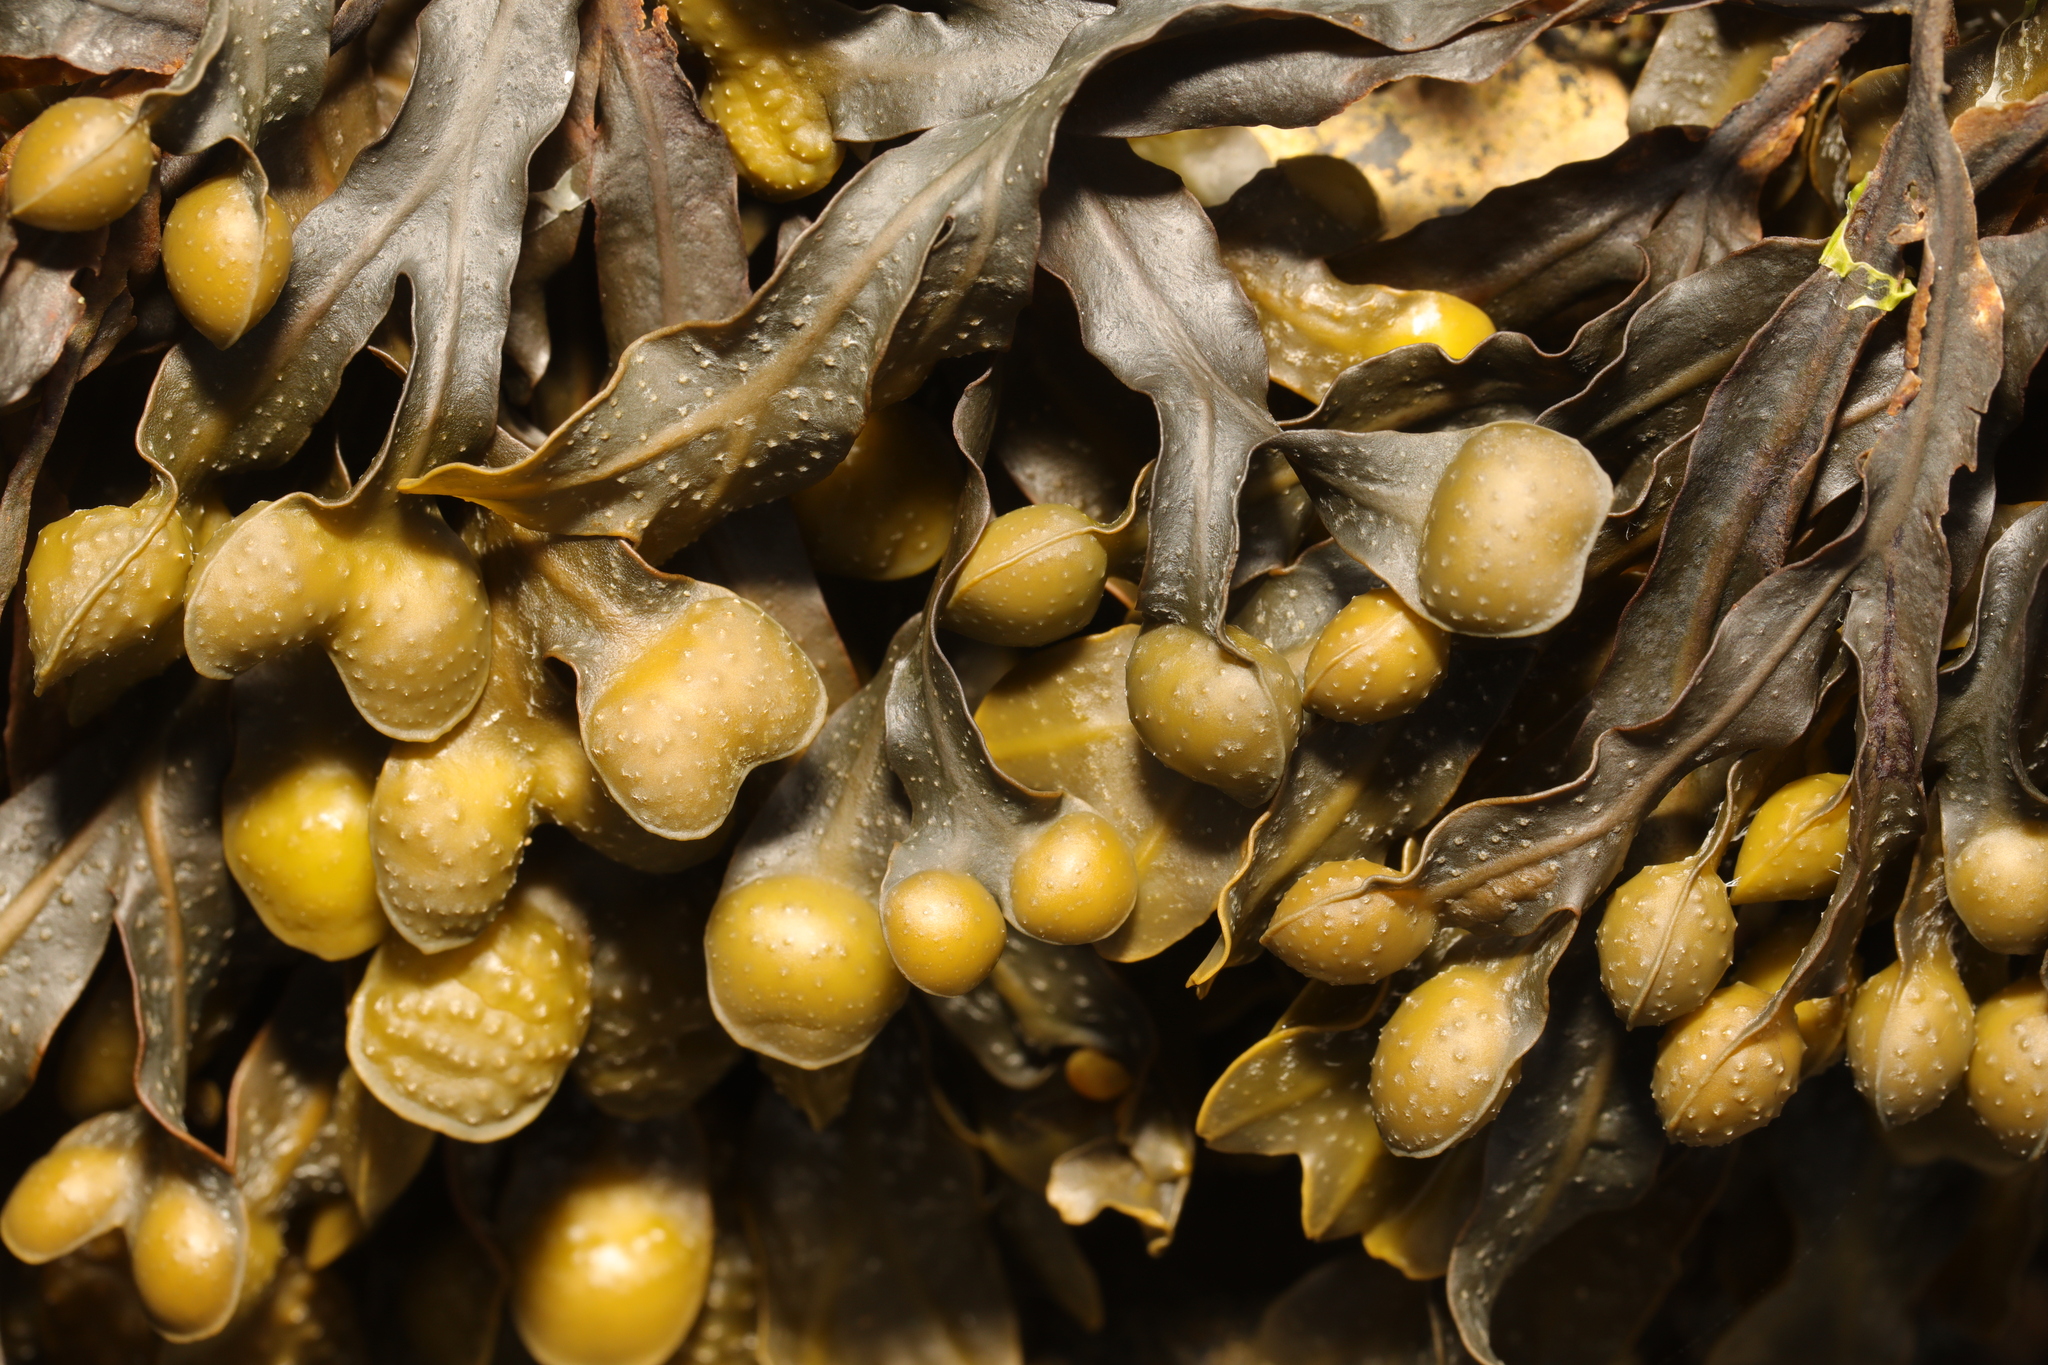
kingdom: Chromista
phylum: Ochrophyta
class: Phaeophyceae
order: Fucales
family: Fucaceae
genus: Fucus
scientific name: Fucus vesiculosus
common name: Bladder wrack
